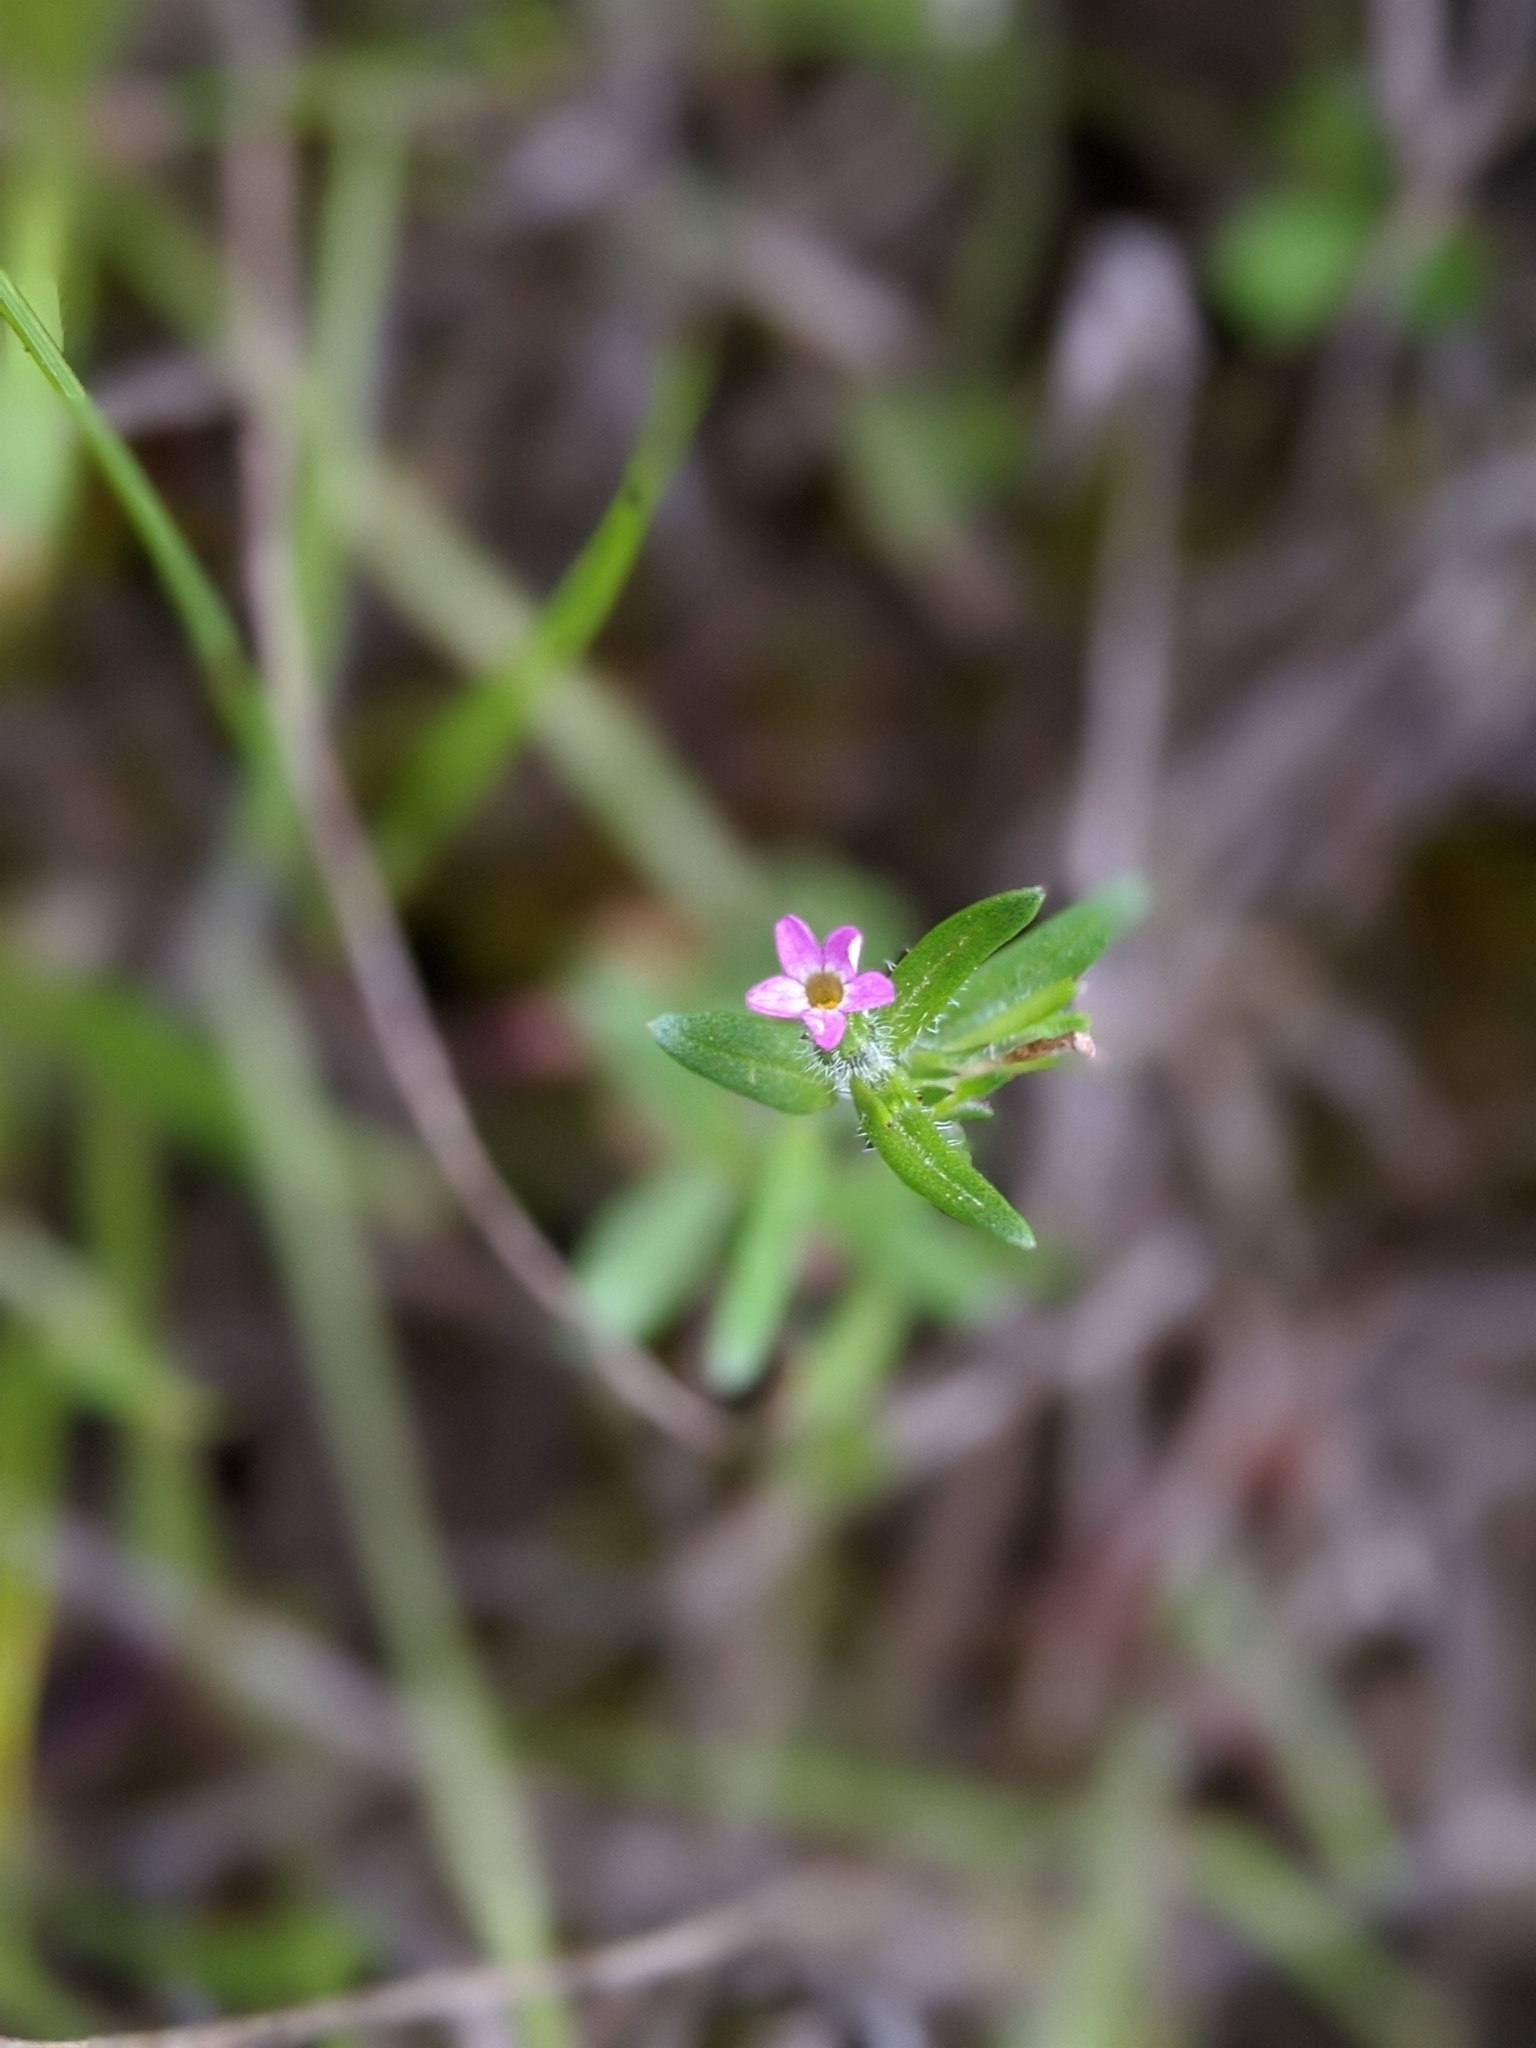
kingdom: Plantae
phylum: Tracheophyta
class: Magnoliopsida
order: Ericales
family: Polemoniaceae
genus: Phlox
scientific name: Phlox gracilis
